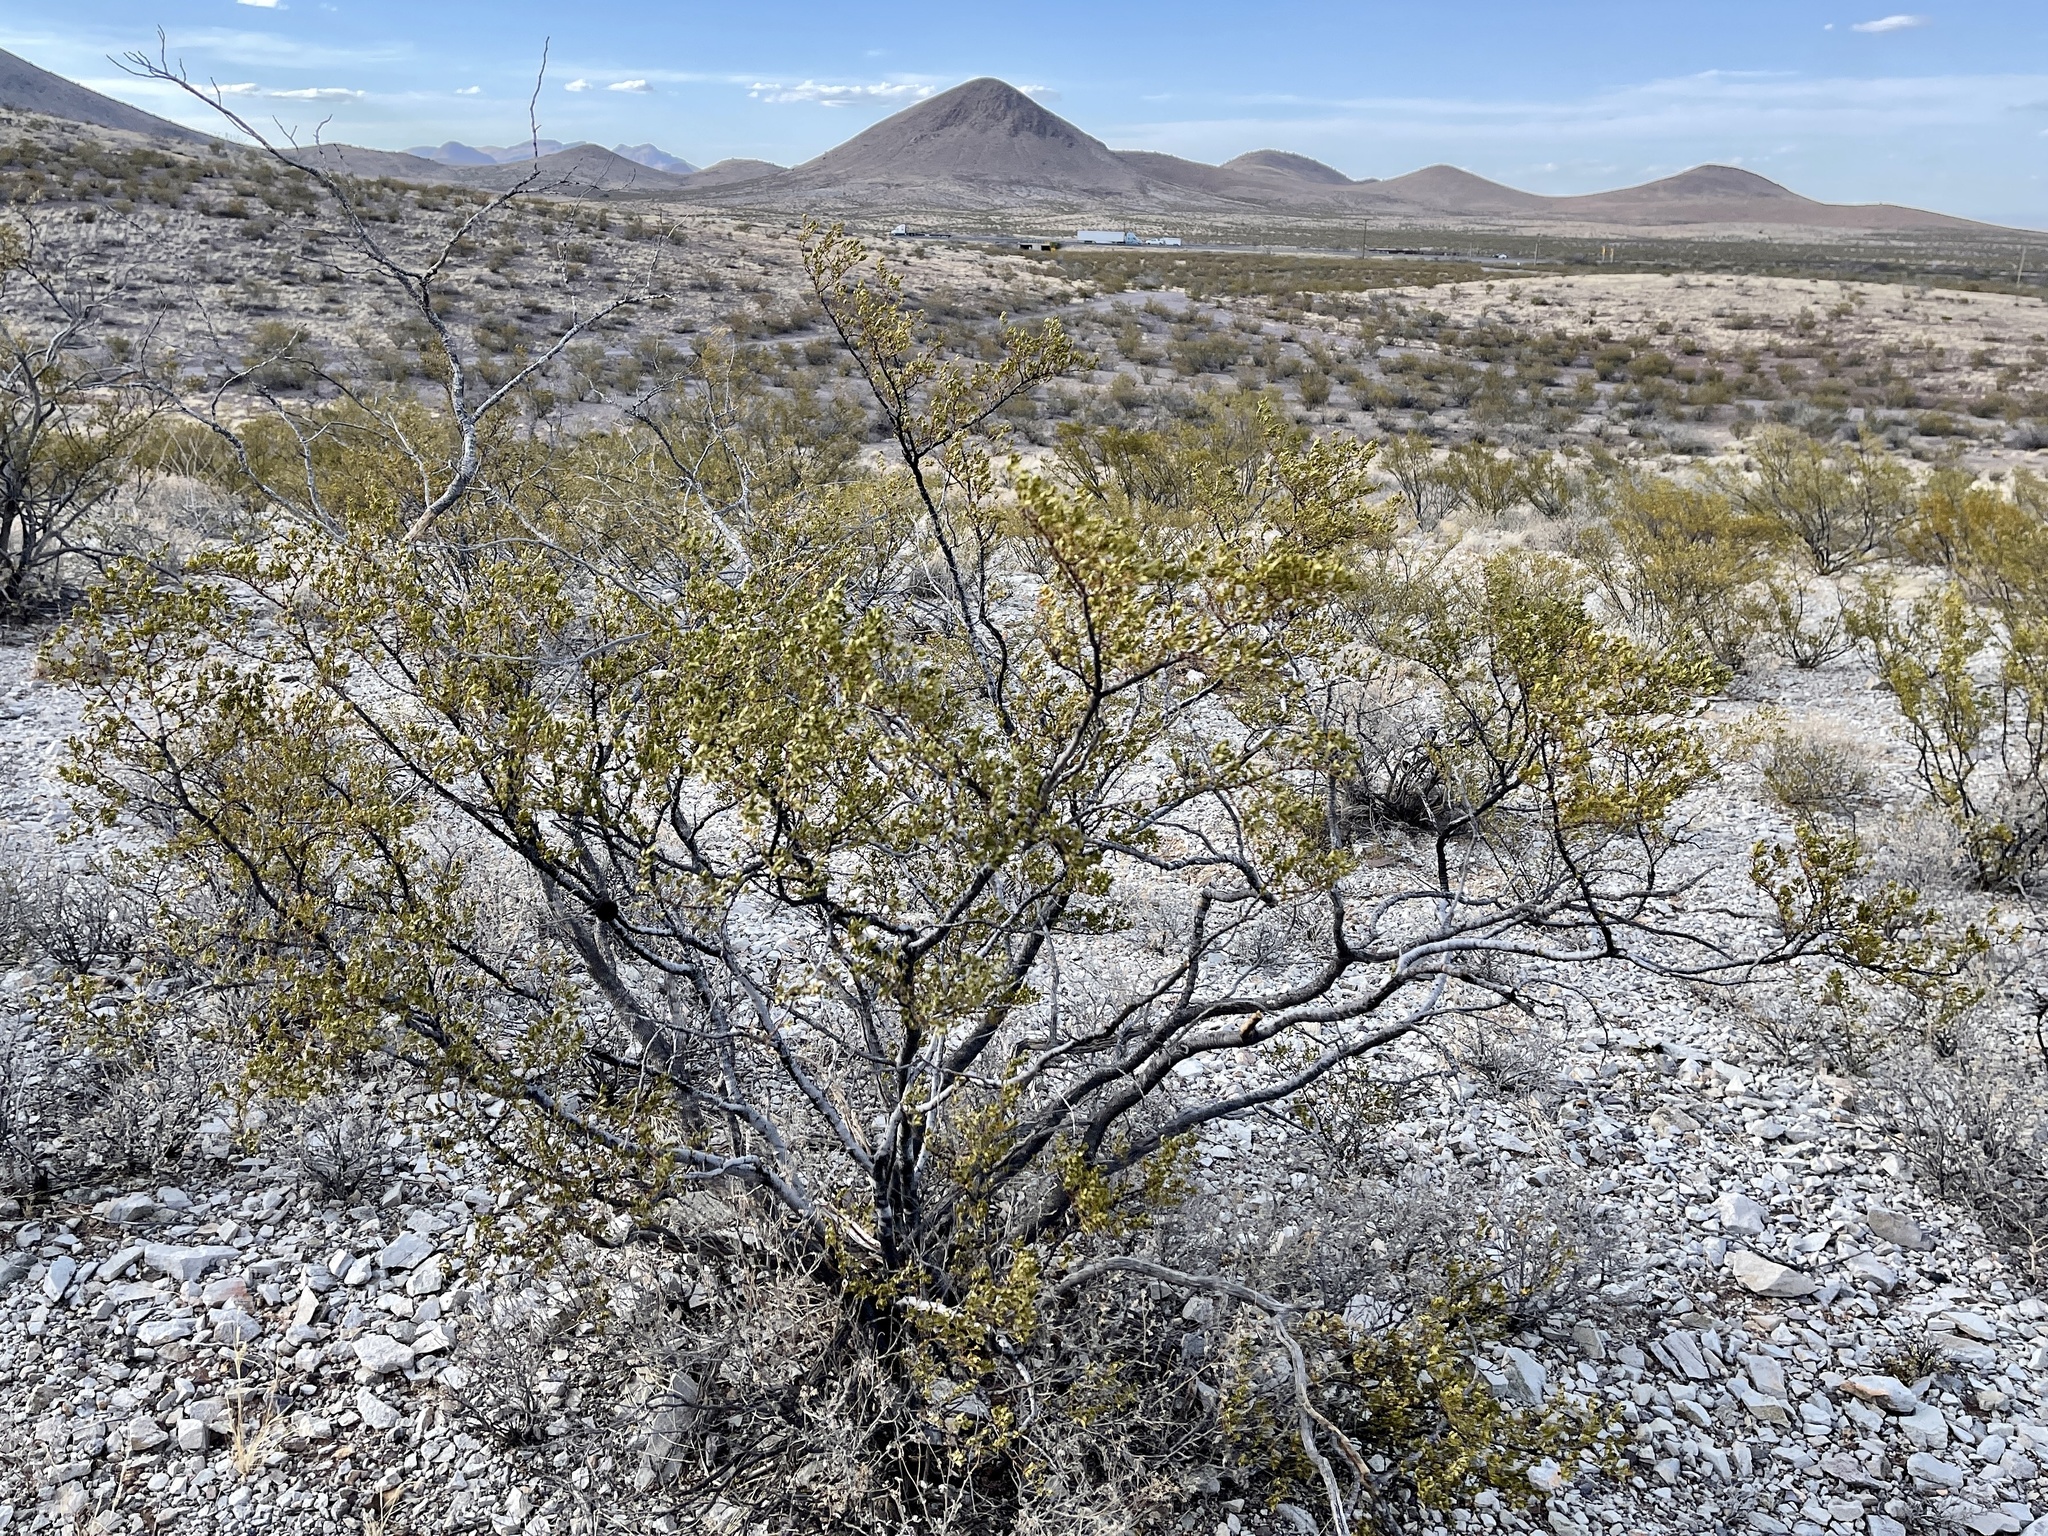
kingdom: Plantae
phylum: Tracheophyta
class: Magnoliopsida
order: Zygophyllales
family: Zygophyllaceae
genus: Larrea
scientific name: Larrea tridentata
